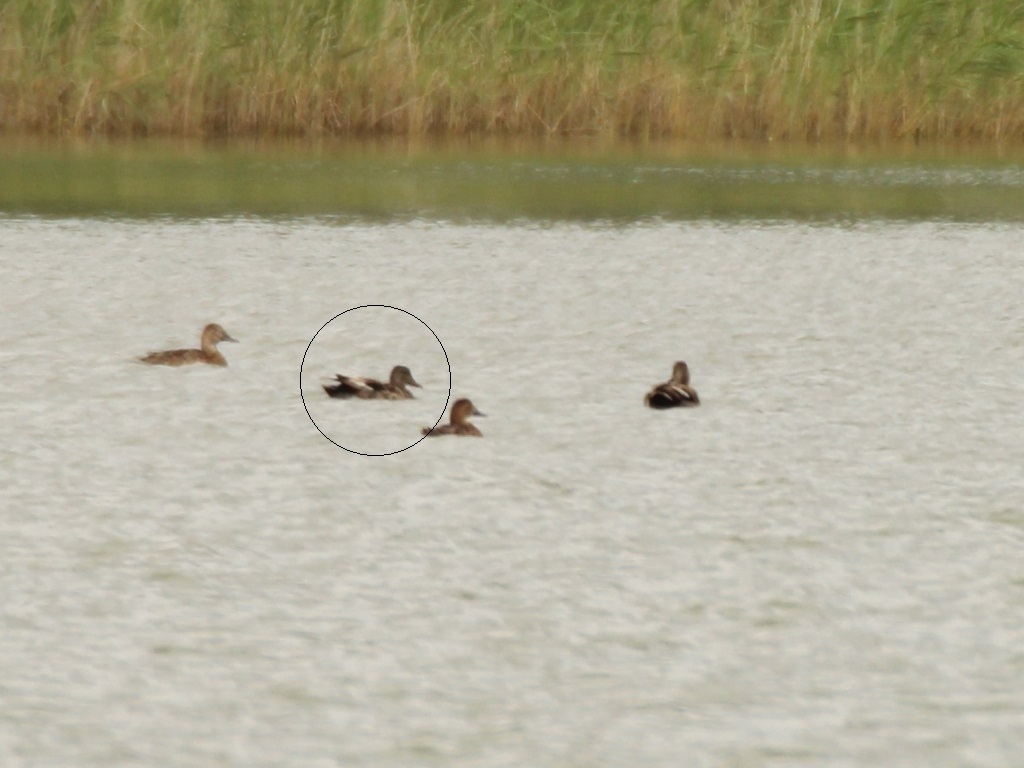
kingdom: Animalia
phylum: Chordata
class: Aves
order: Anseriformes
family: Anatidae
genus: Mareca
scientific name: Mareca strepera
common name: Gadwall
